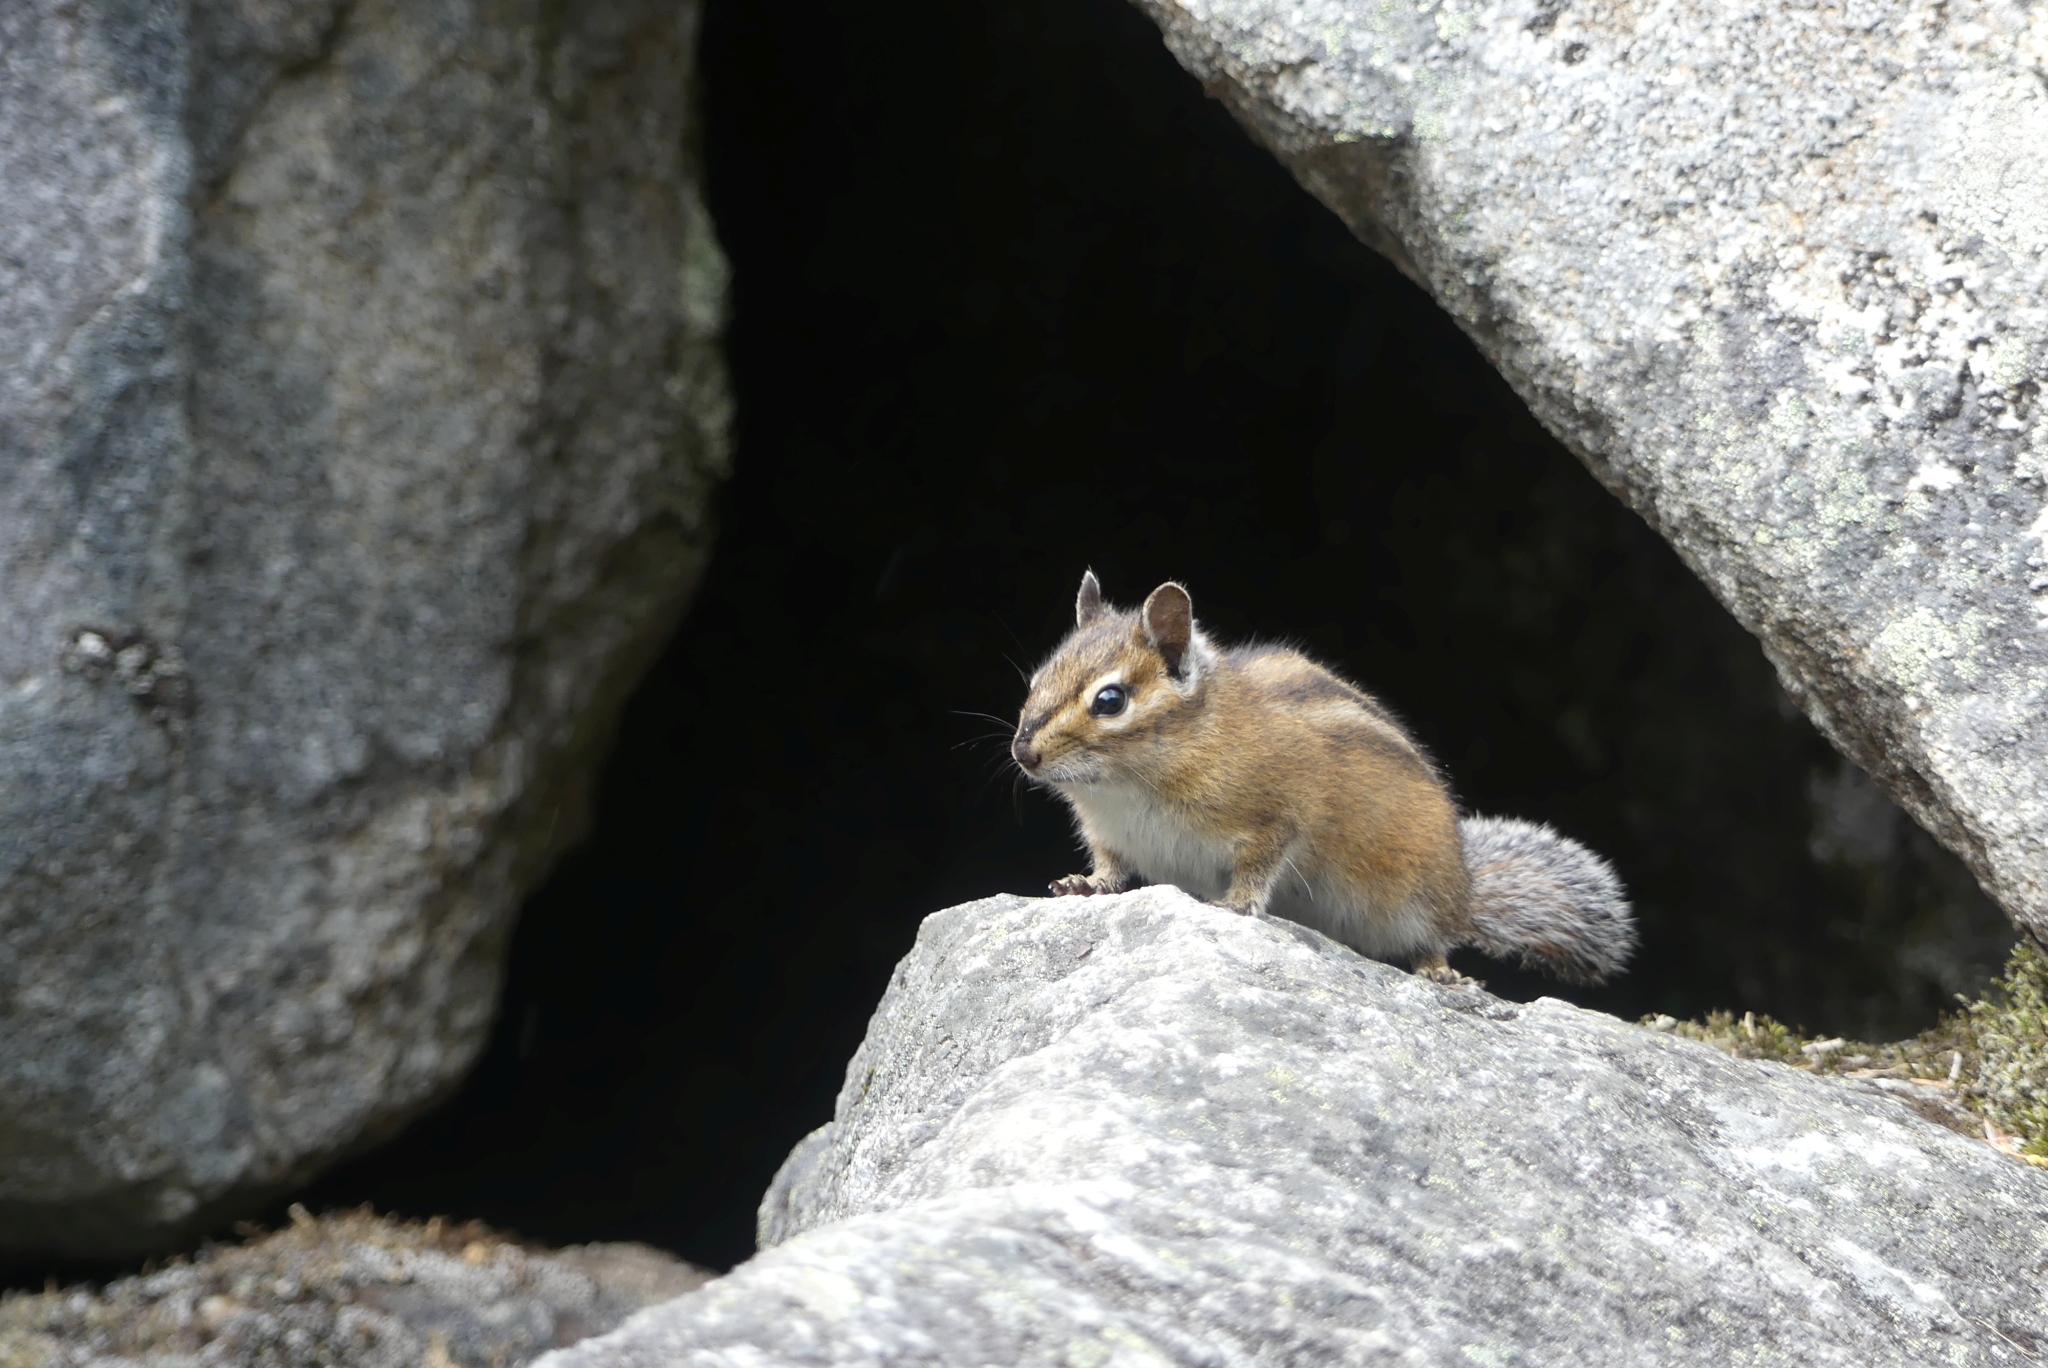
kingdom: Animalia
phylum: Chordata
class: Mammalia
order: Rodentia
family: Sciuridae
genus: Tamias
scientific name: Tamias townsendii
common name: Townsend's chipmunk
